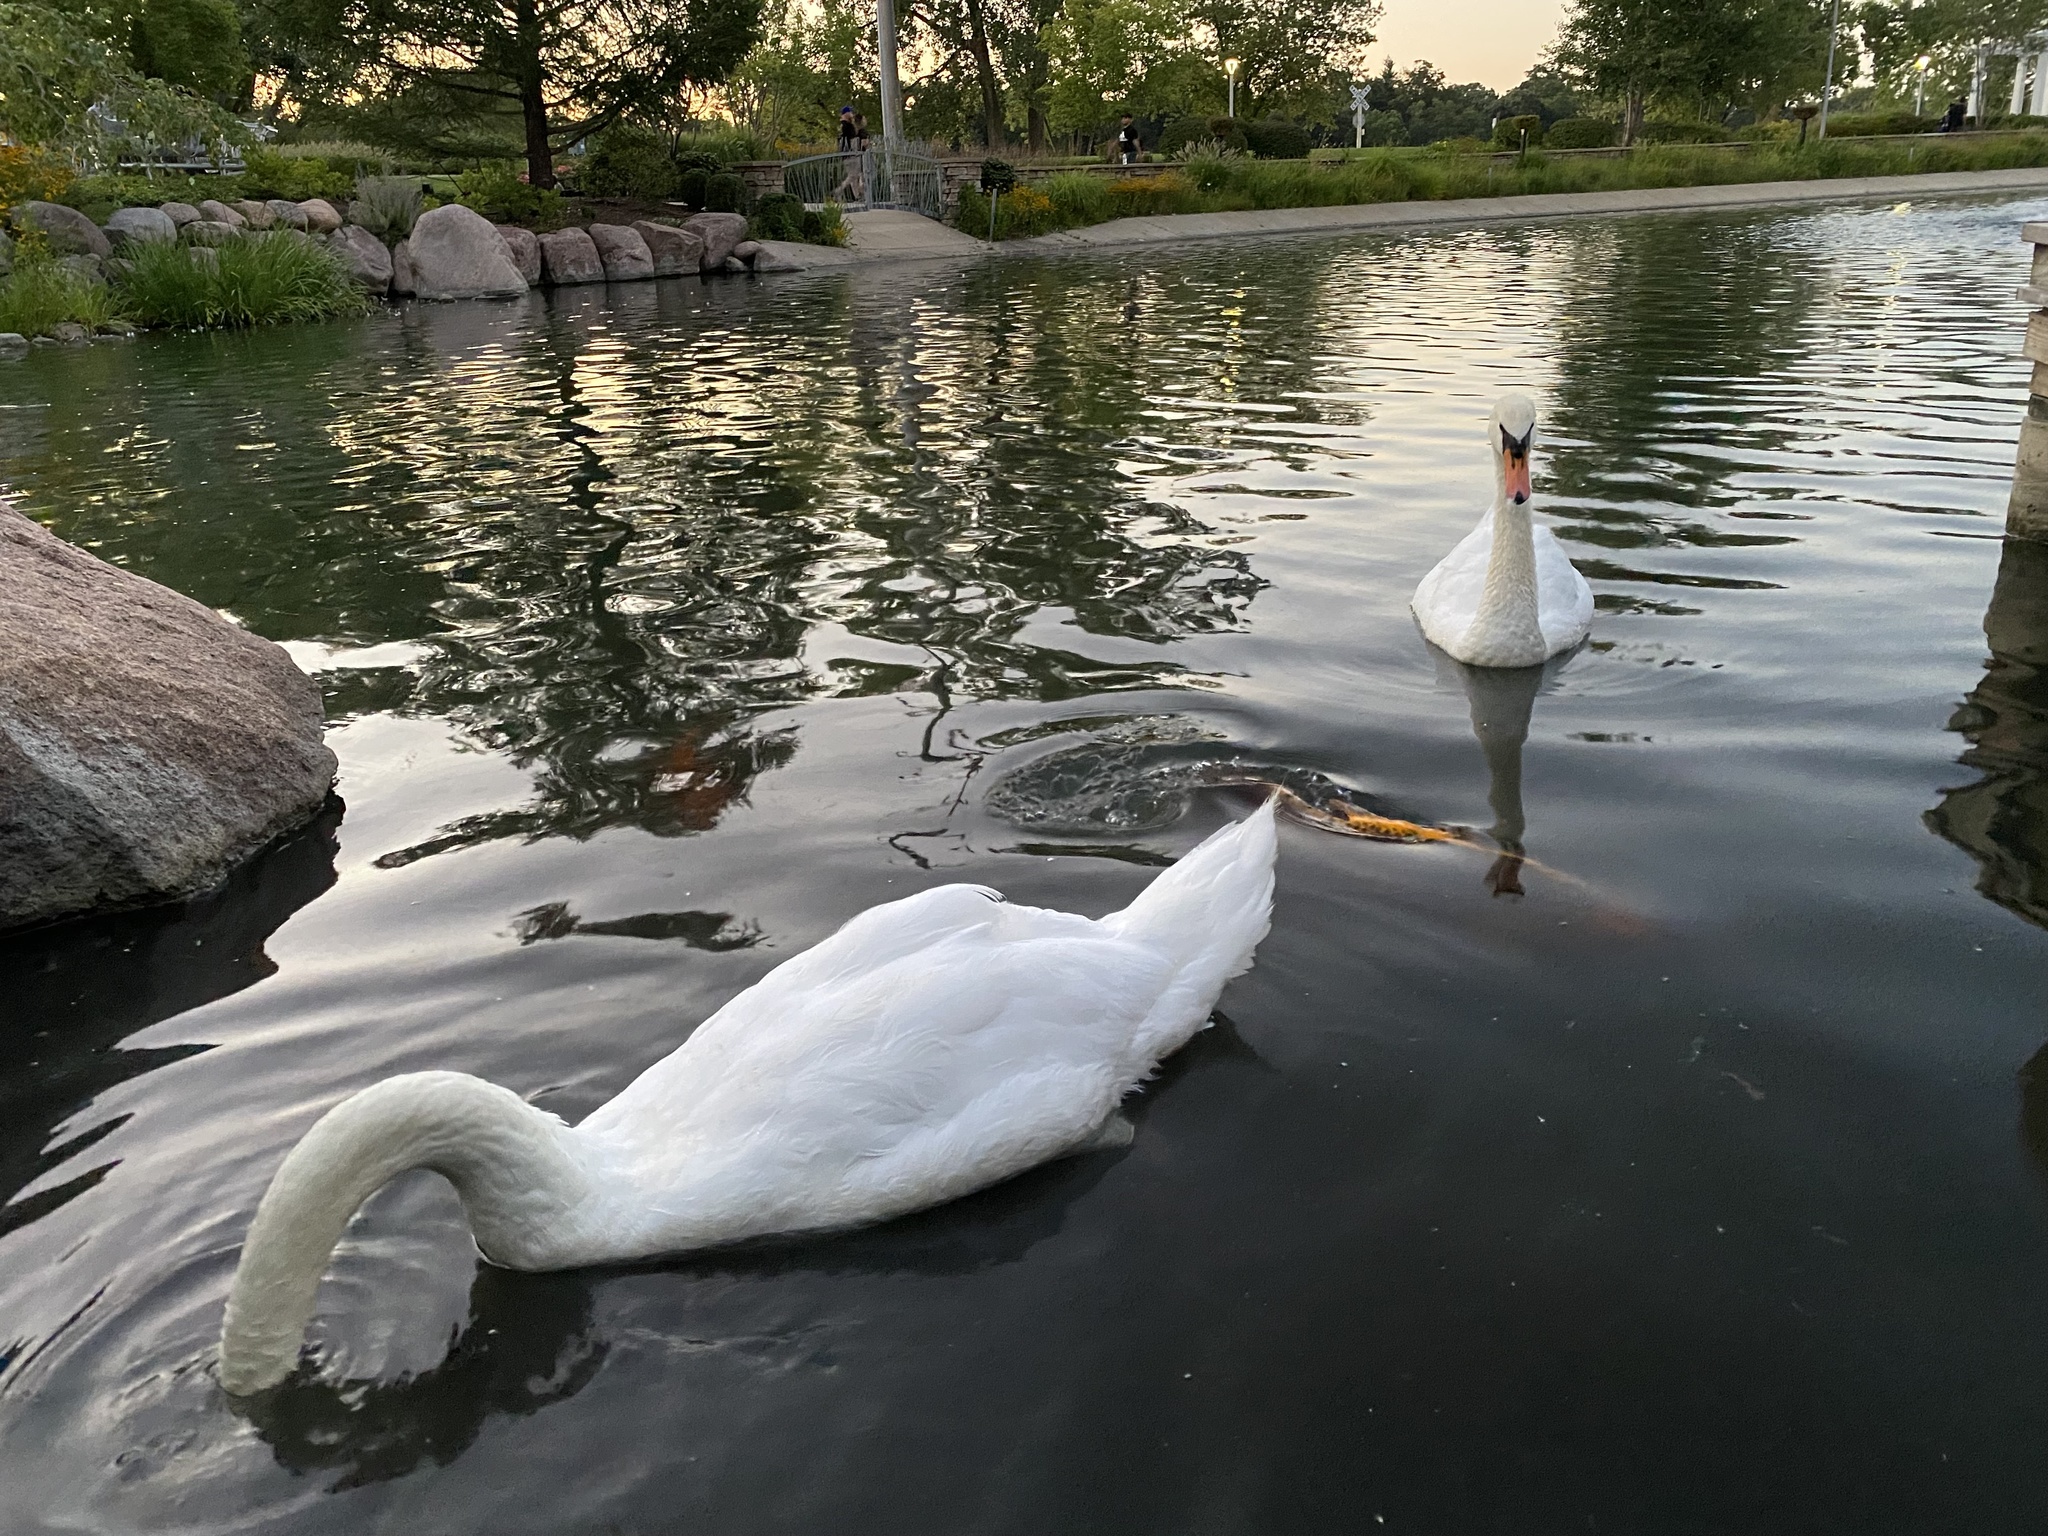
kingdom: Animalia
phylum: Chordata
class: Aves
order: Anseriformes
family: Anatidae
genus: Cygnus
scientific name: Cygnus olor
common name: Mute swan
